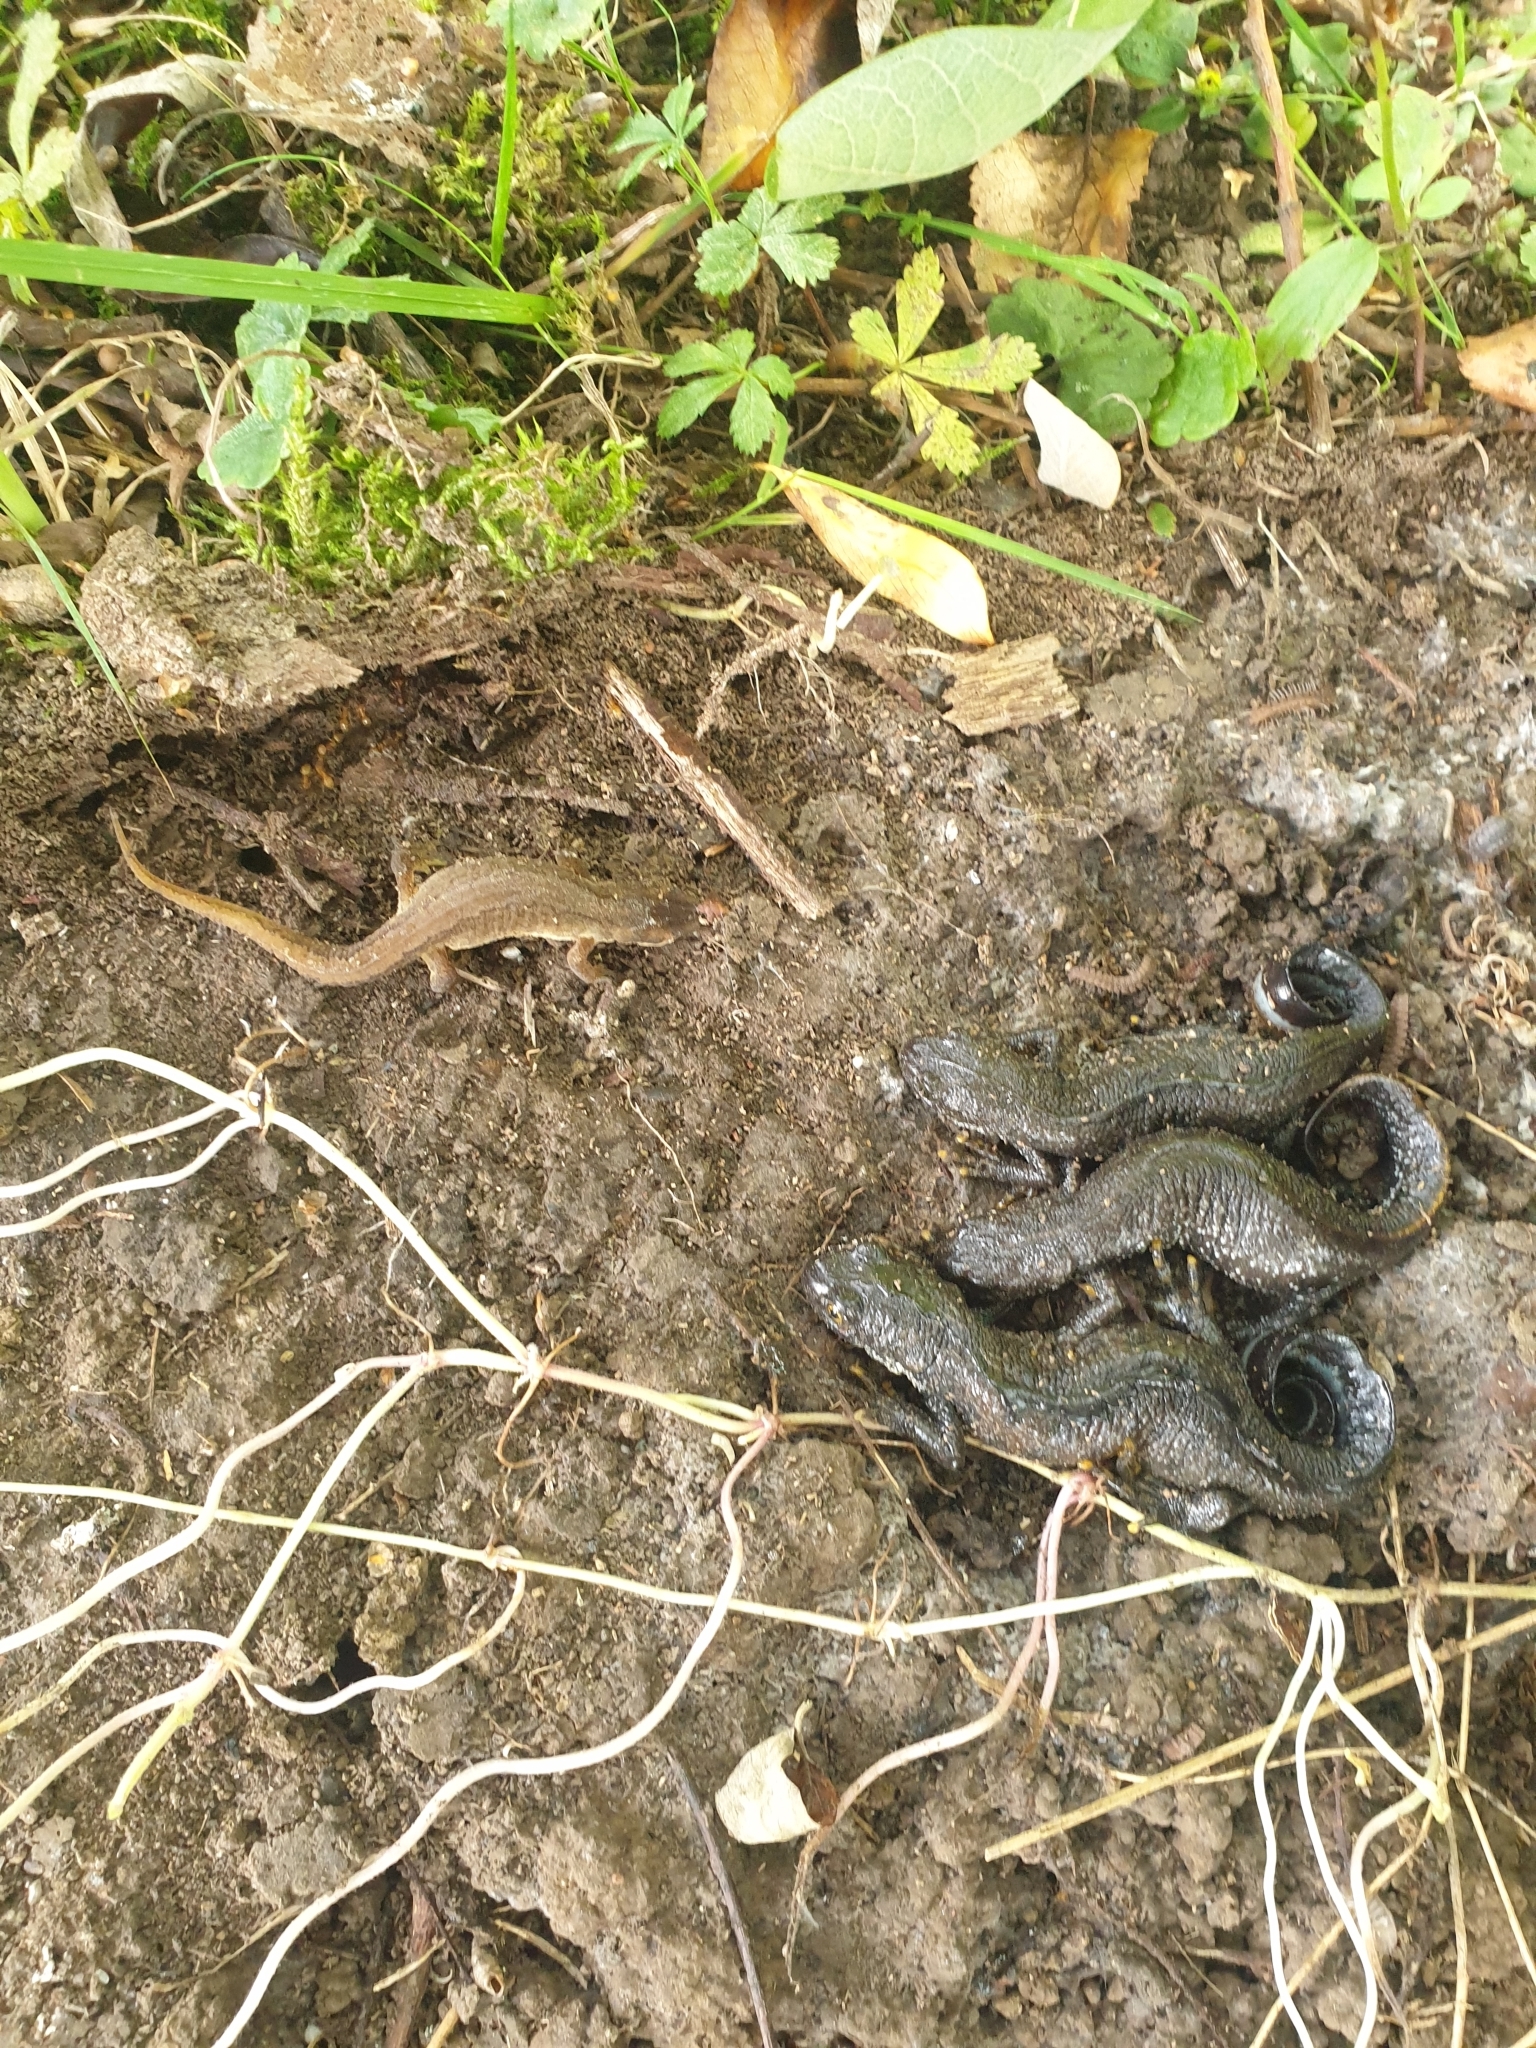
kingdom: Animalia
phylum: Chordata
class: Amphibia
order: Caudata
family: Salamandridae
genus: Triturus
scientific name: Triturus cristatus
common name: Crested newt
